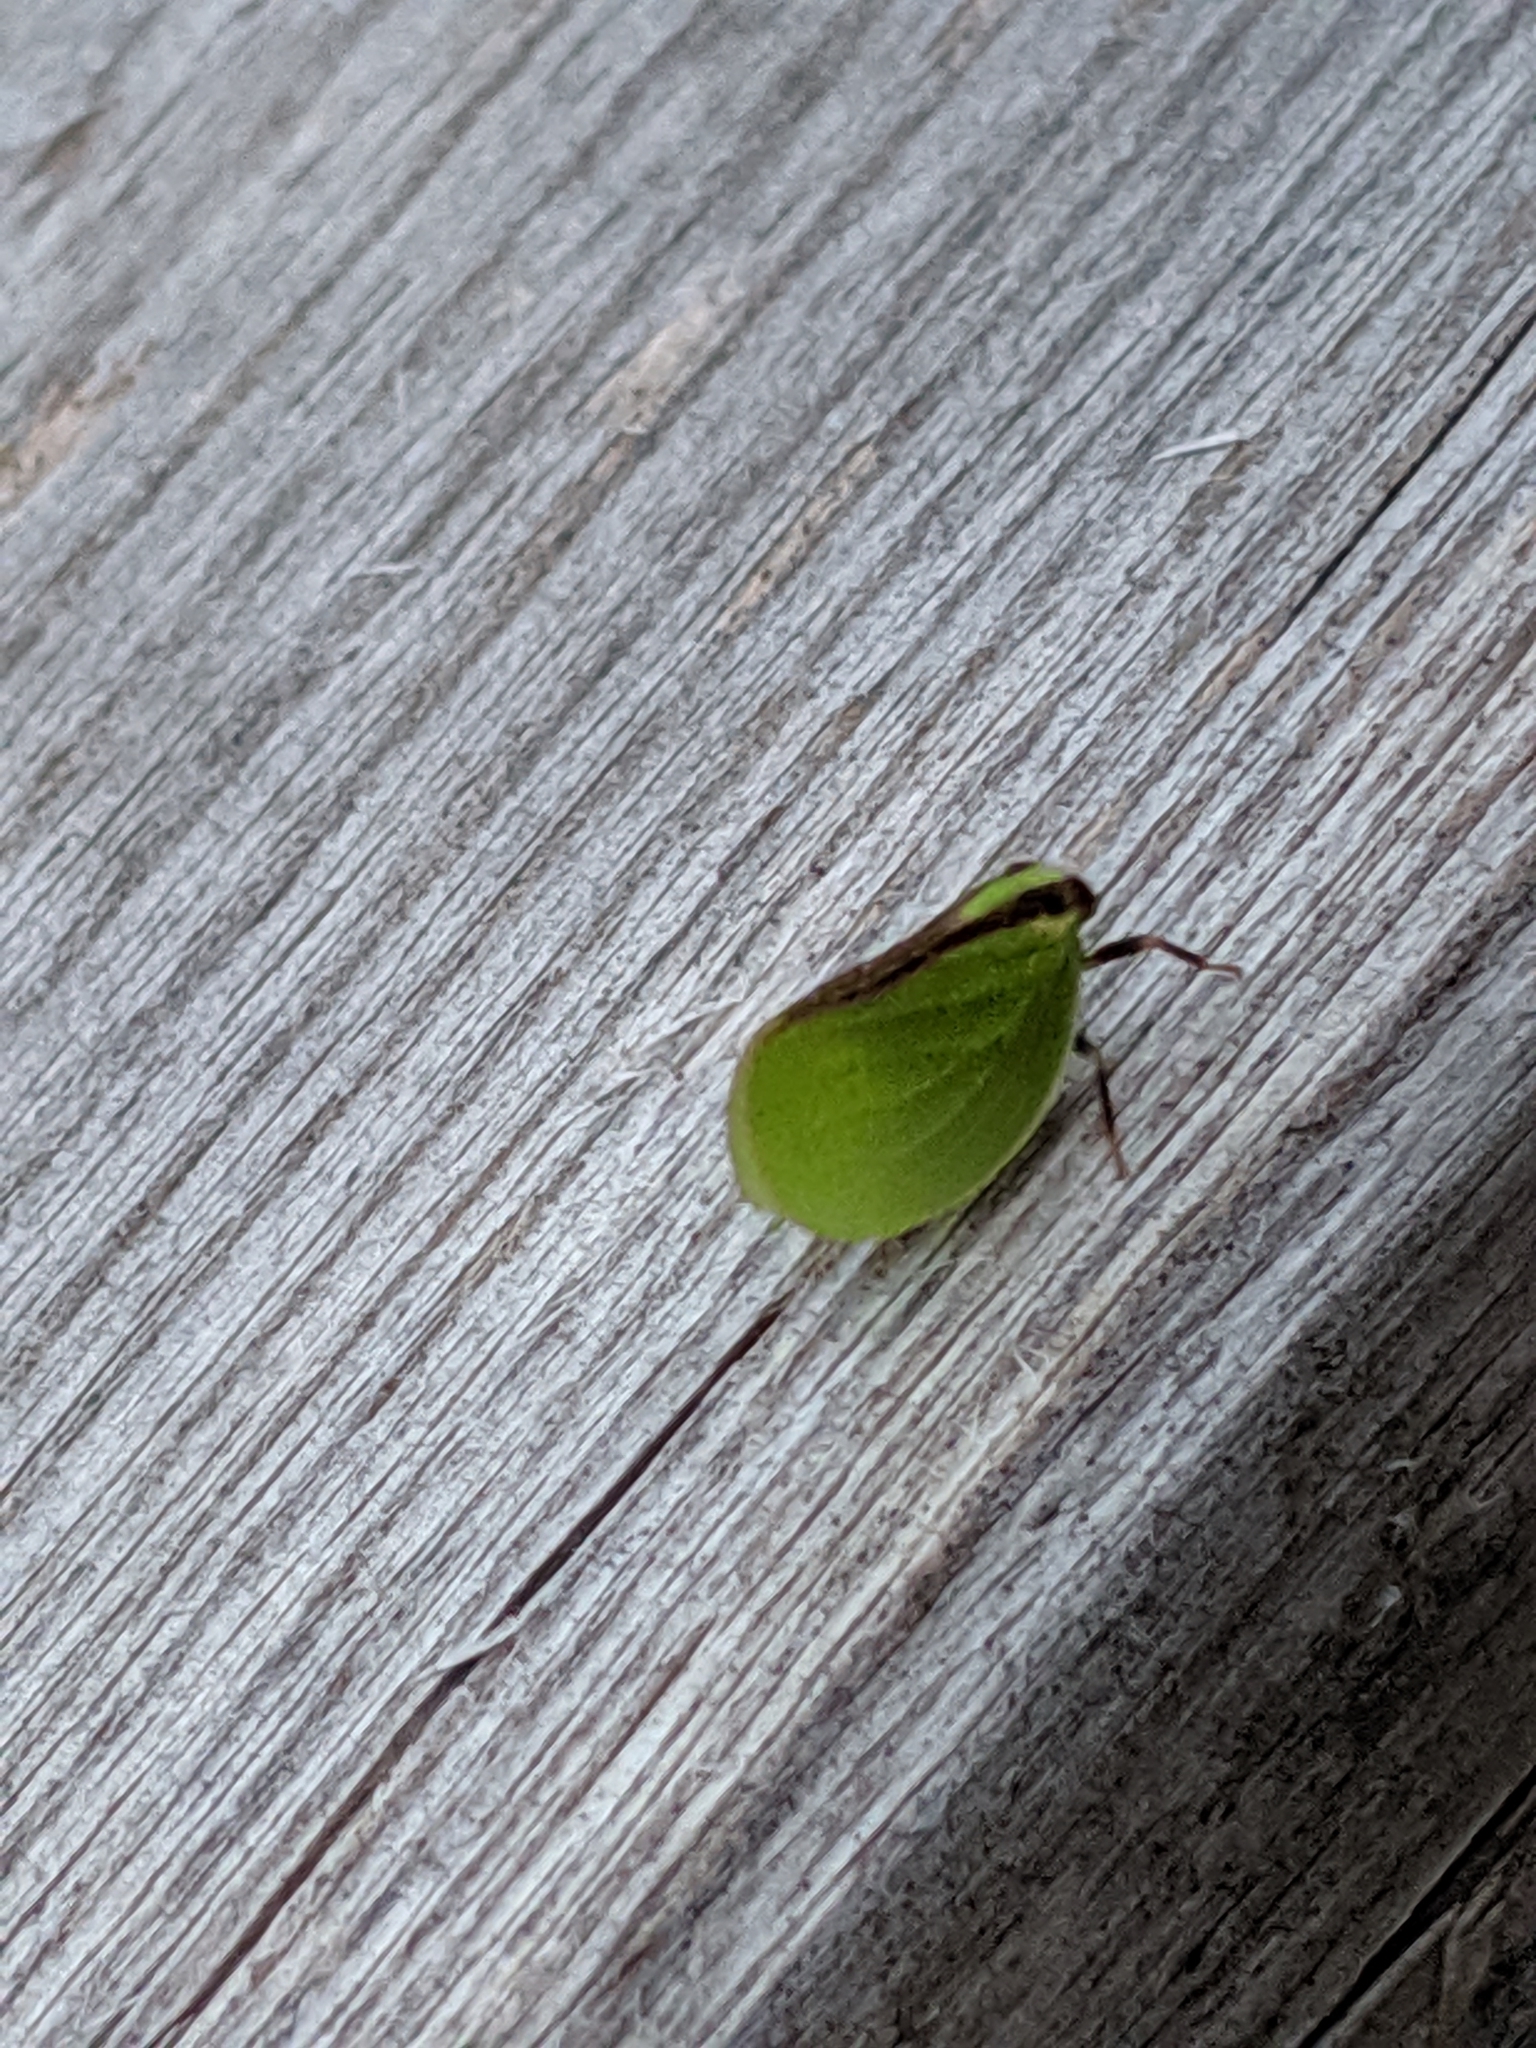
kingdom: Animalia
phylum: Arthropoda
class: Insecta
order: Hemiptera
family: Acanaloniidae
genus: Acanalonia
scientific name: Acanalonia bivittata
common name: Two-striped planthopper
